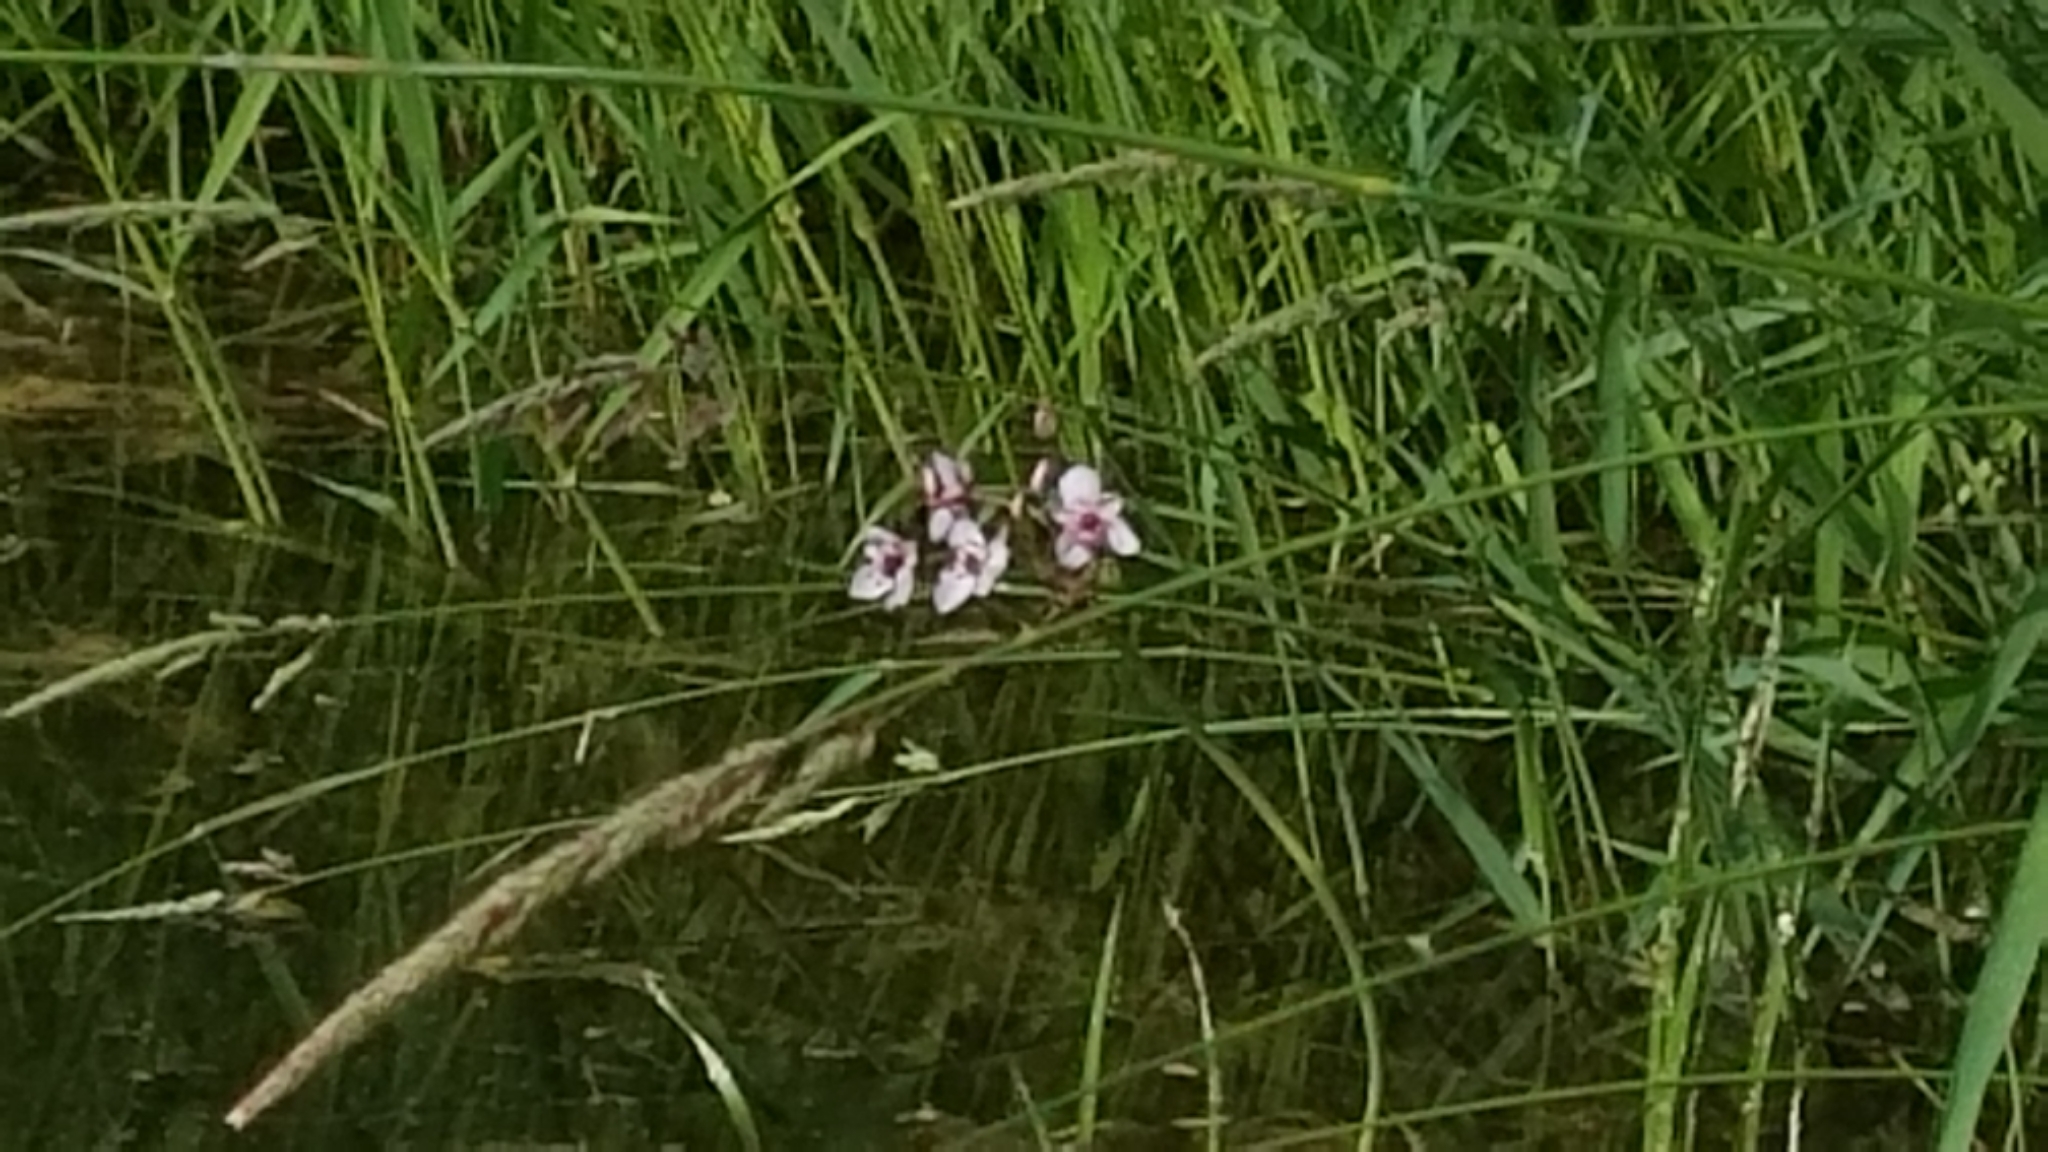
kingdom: Plantae
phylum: Tracheophyta
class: Liliopsida
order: Alismatales
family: Butomaceae
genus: Butomus
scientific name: Butomus umbellatus
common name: Flowering-rush
